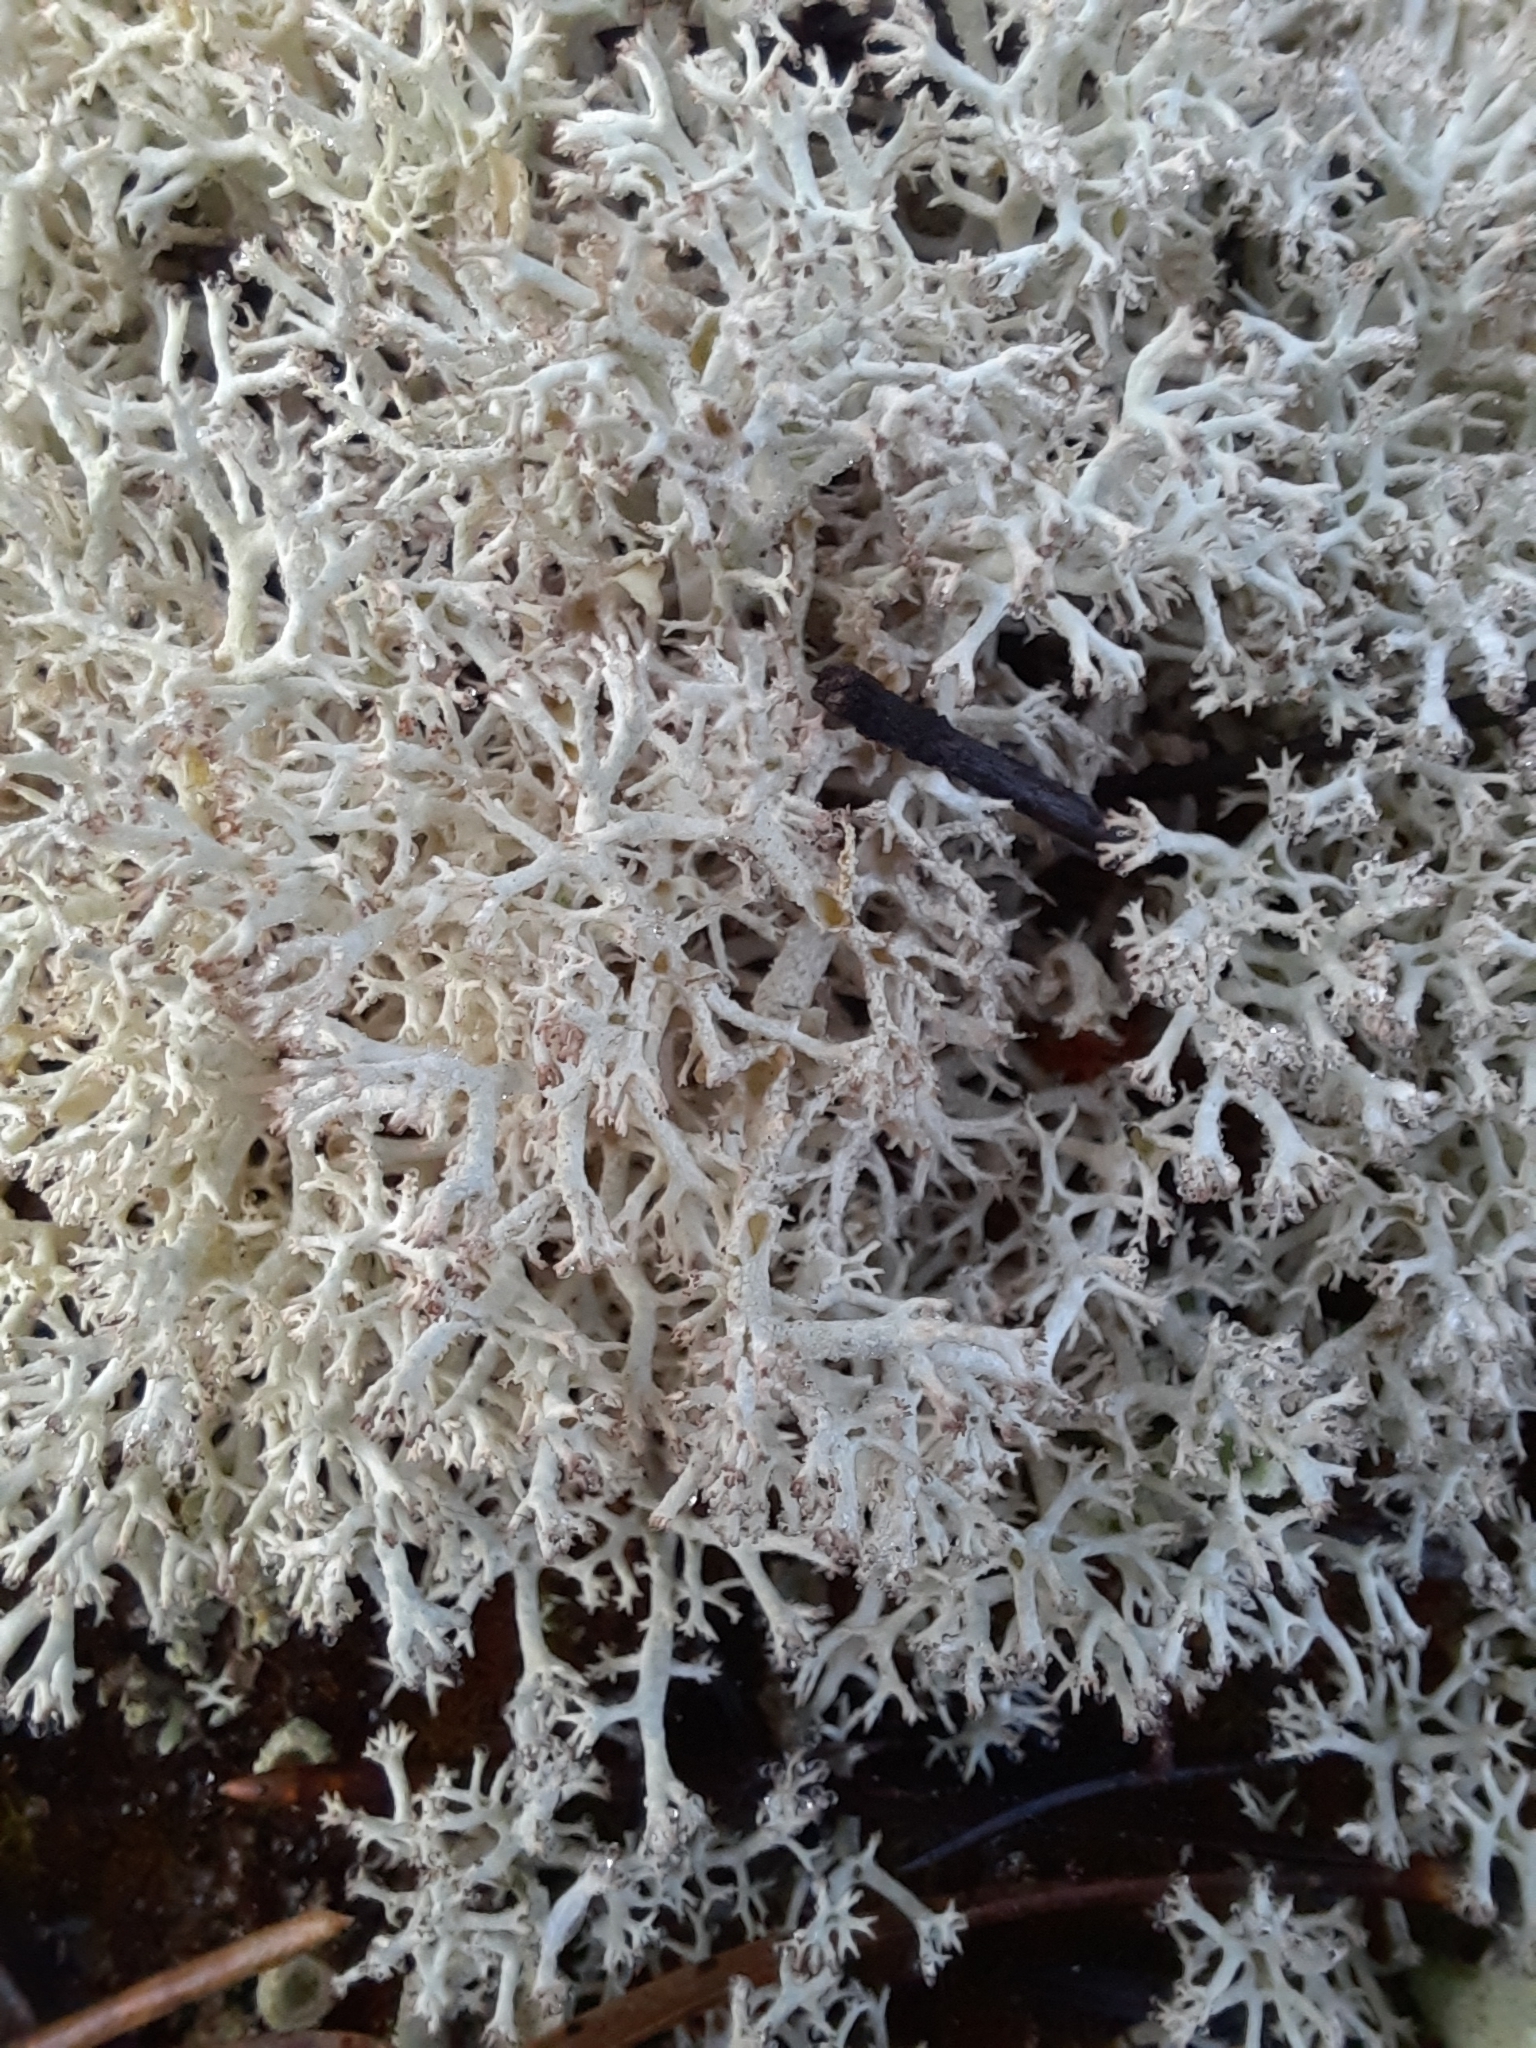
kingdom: Fungi
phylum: Ascomycota
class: Lecanoromycetes
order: Lecanorales
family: Cladoniaceae
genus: Cladonia
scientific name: Cladonia arbuscula
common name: Reindeer lichen
